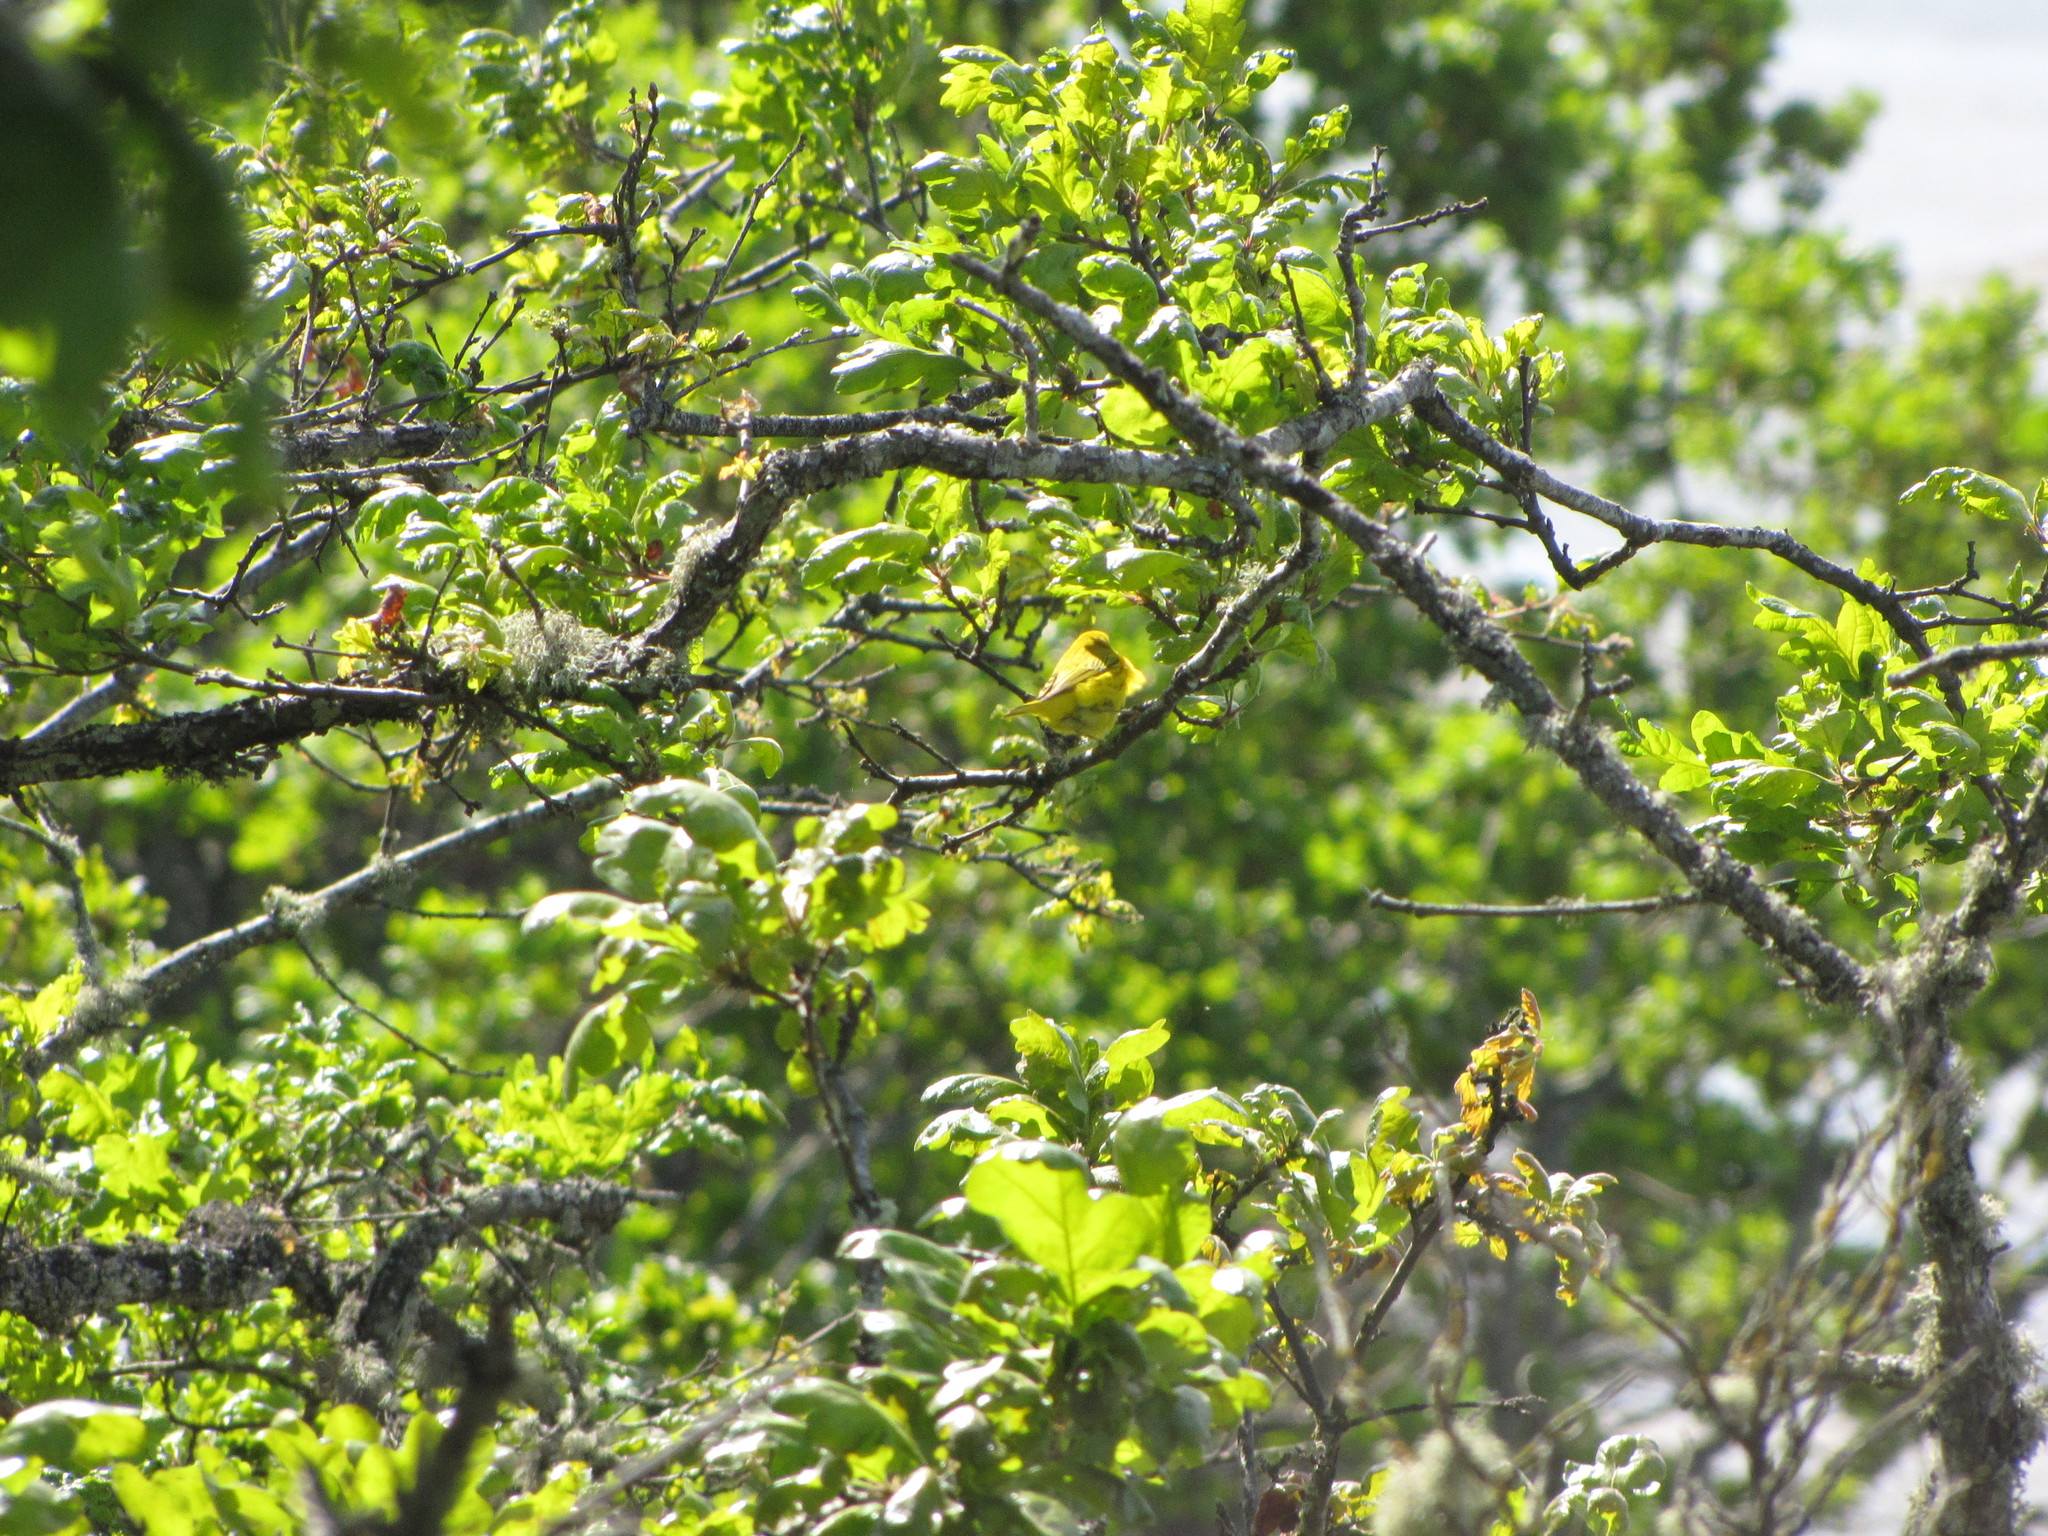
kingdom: Animalia
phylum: Chordata
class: Aves
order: Passeriformes
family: Parulidae
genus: Setophaga
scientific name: Setophaga petechia
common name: Yellow warbler
